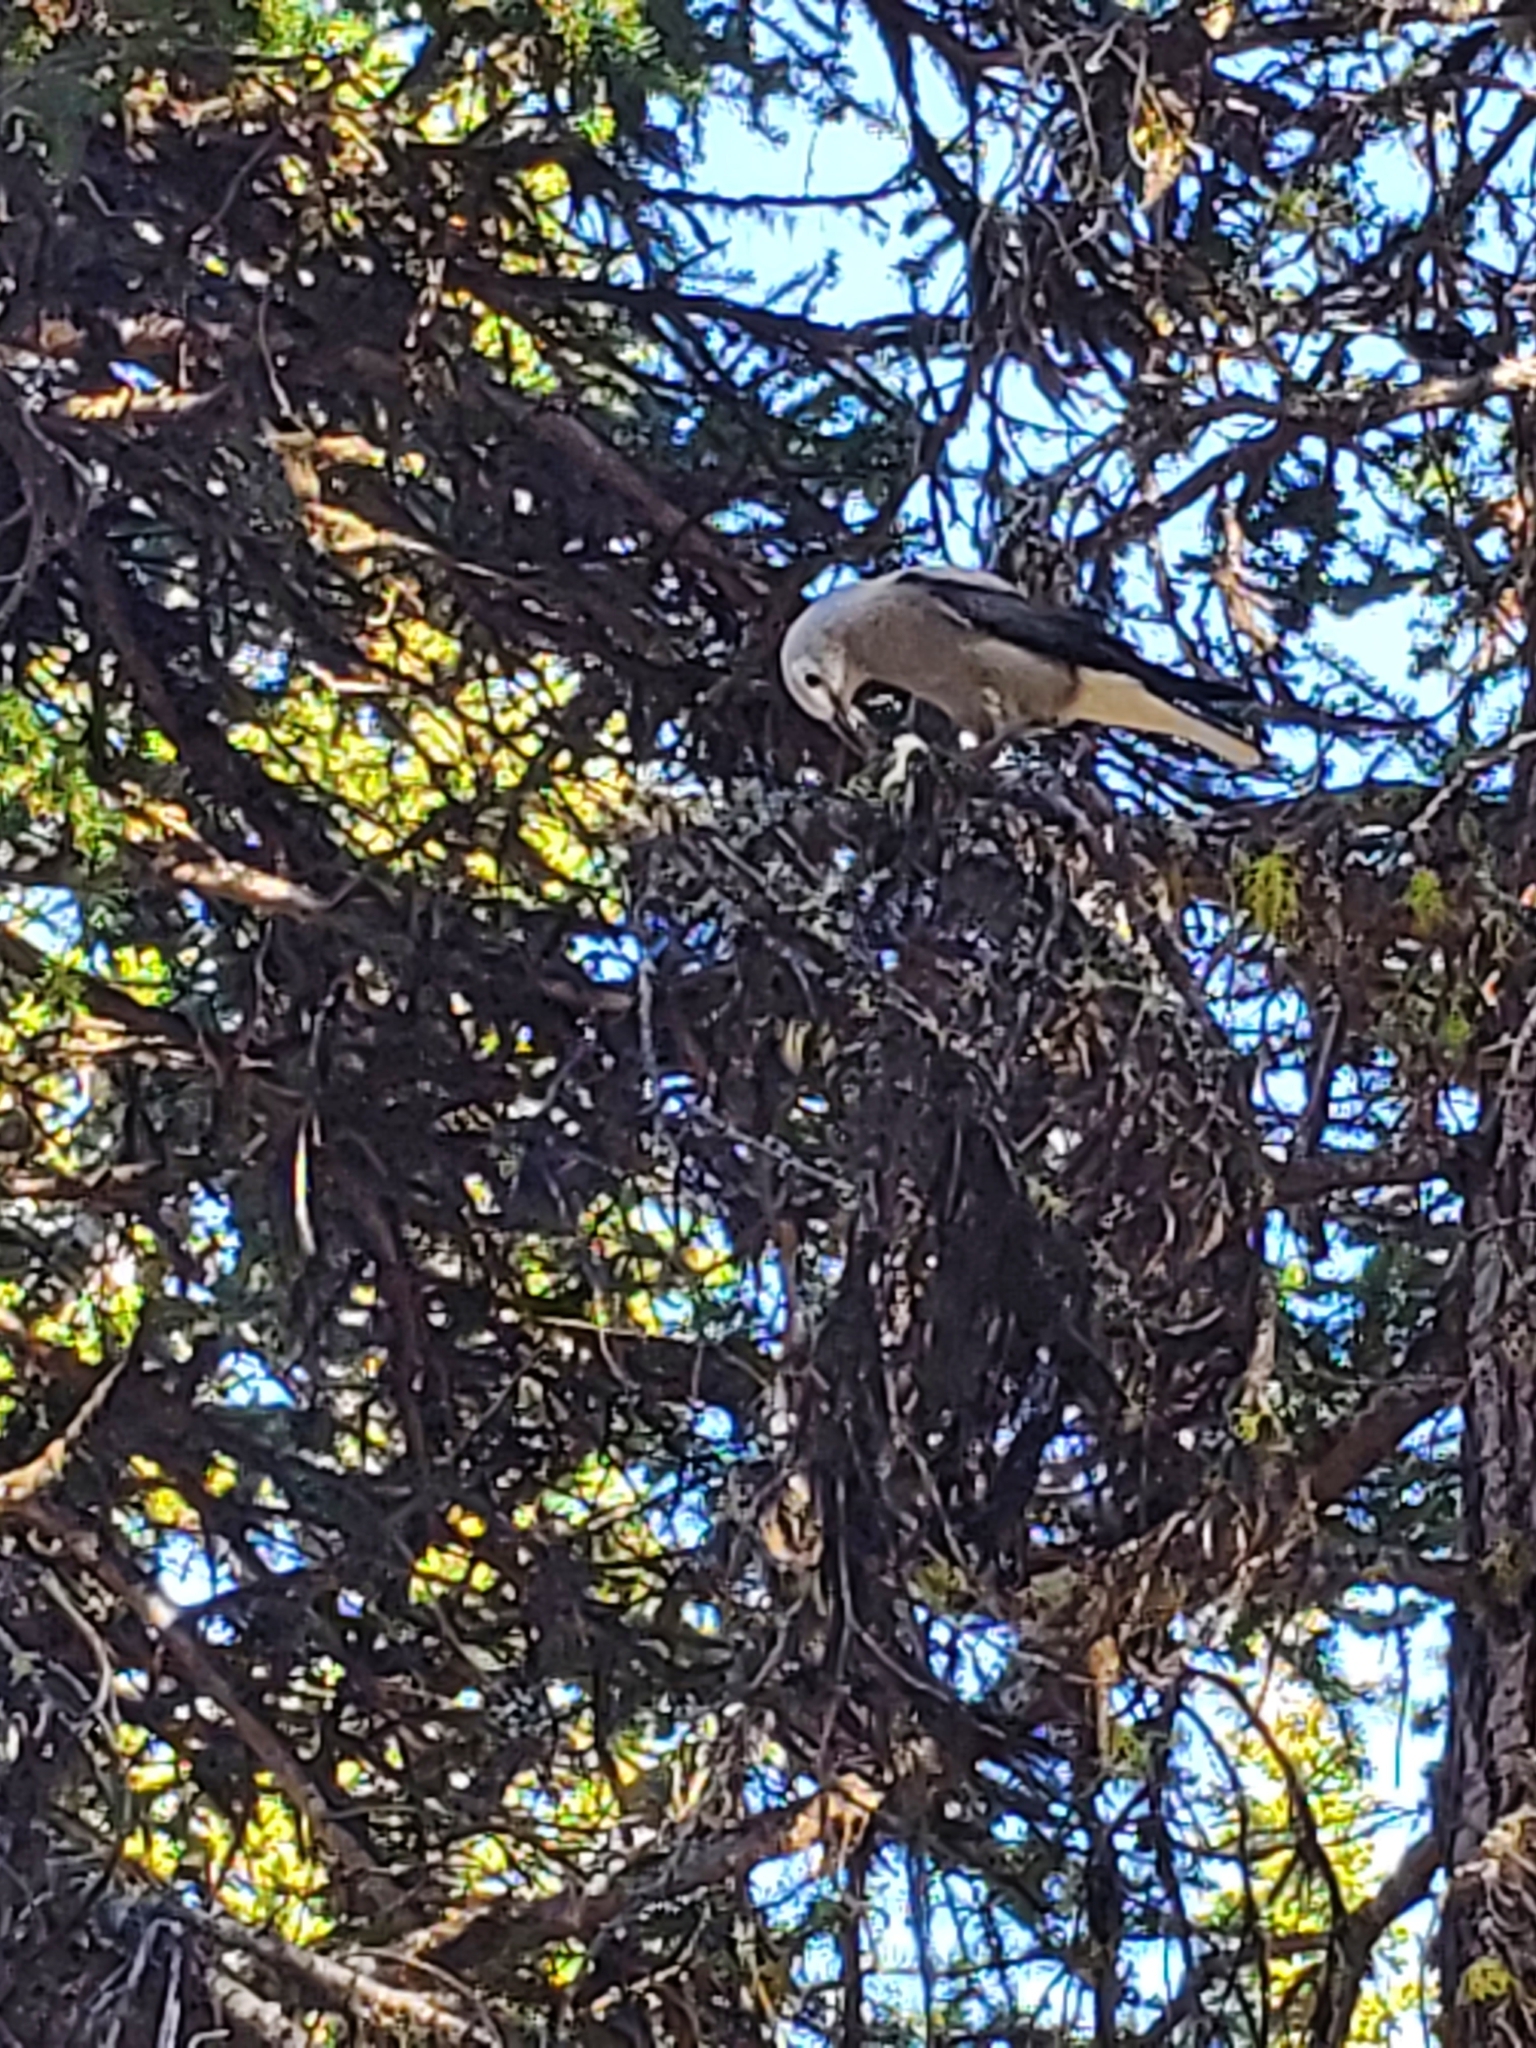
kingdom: Animalia
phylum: Chordata
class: Aves
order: Passeriformes
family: Corvidae
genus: Nucifraga
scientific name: Nucifraga columbiana
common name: Clark's nutcracker
